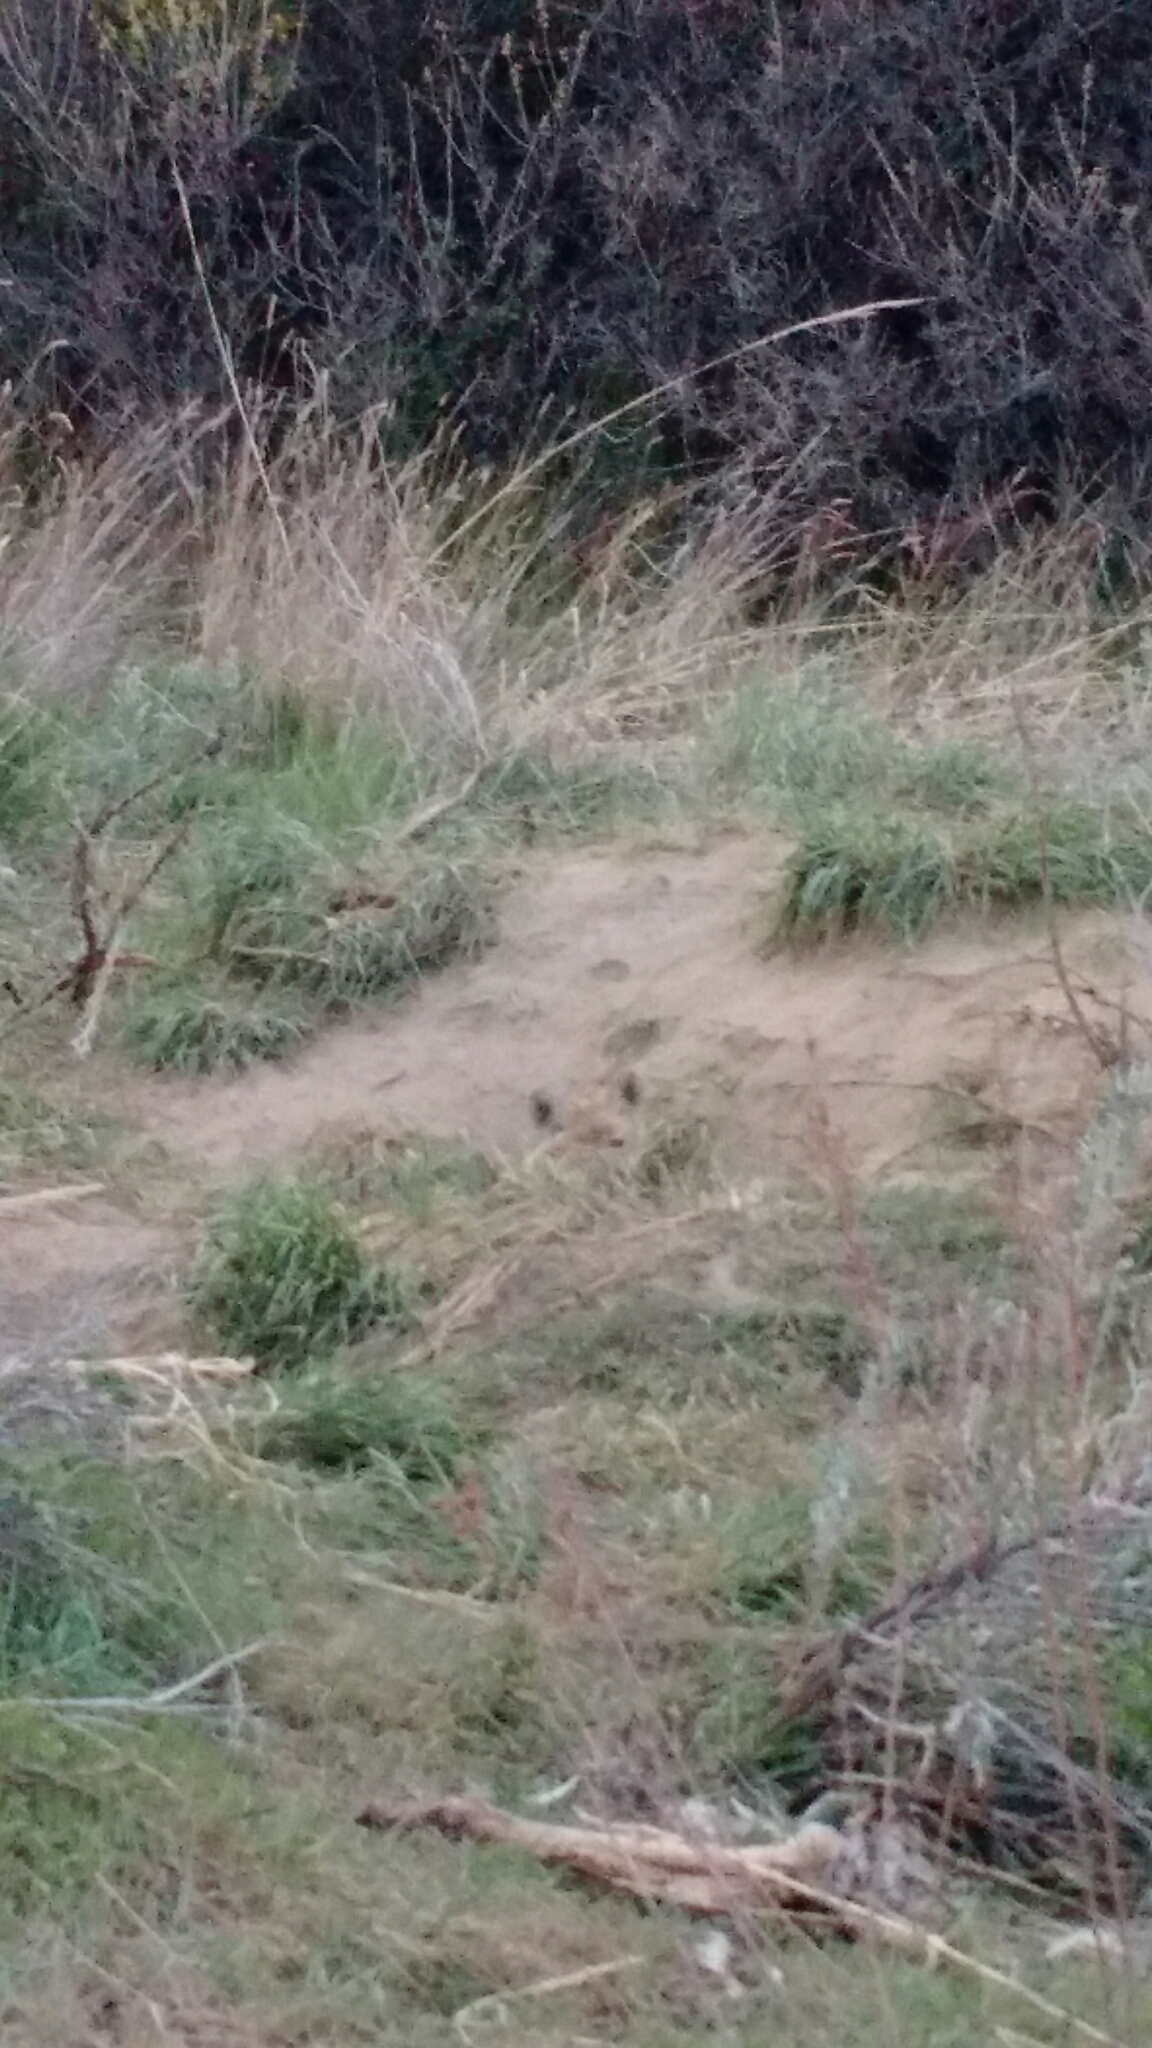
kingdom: Animalia
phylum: Chordata
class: Mammalia
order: Carnivora
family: Canidae
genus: Vulpes
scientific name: Vulpes vulpes
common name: Red fox
